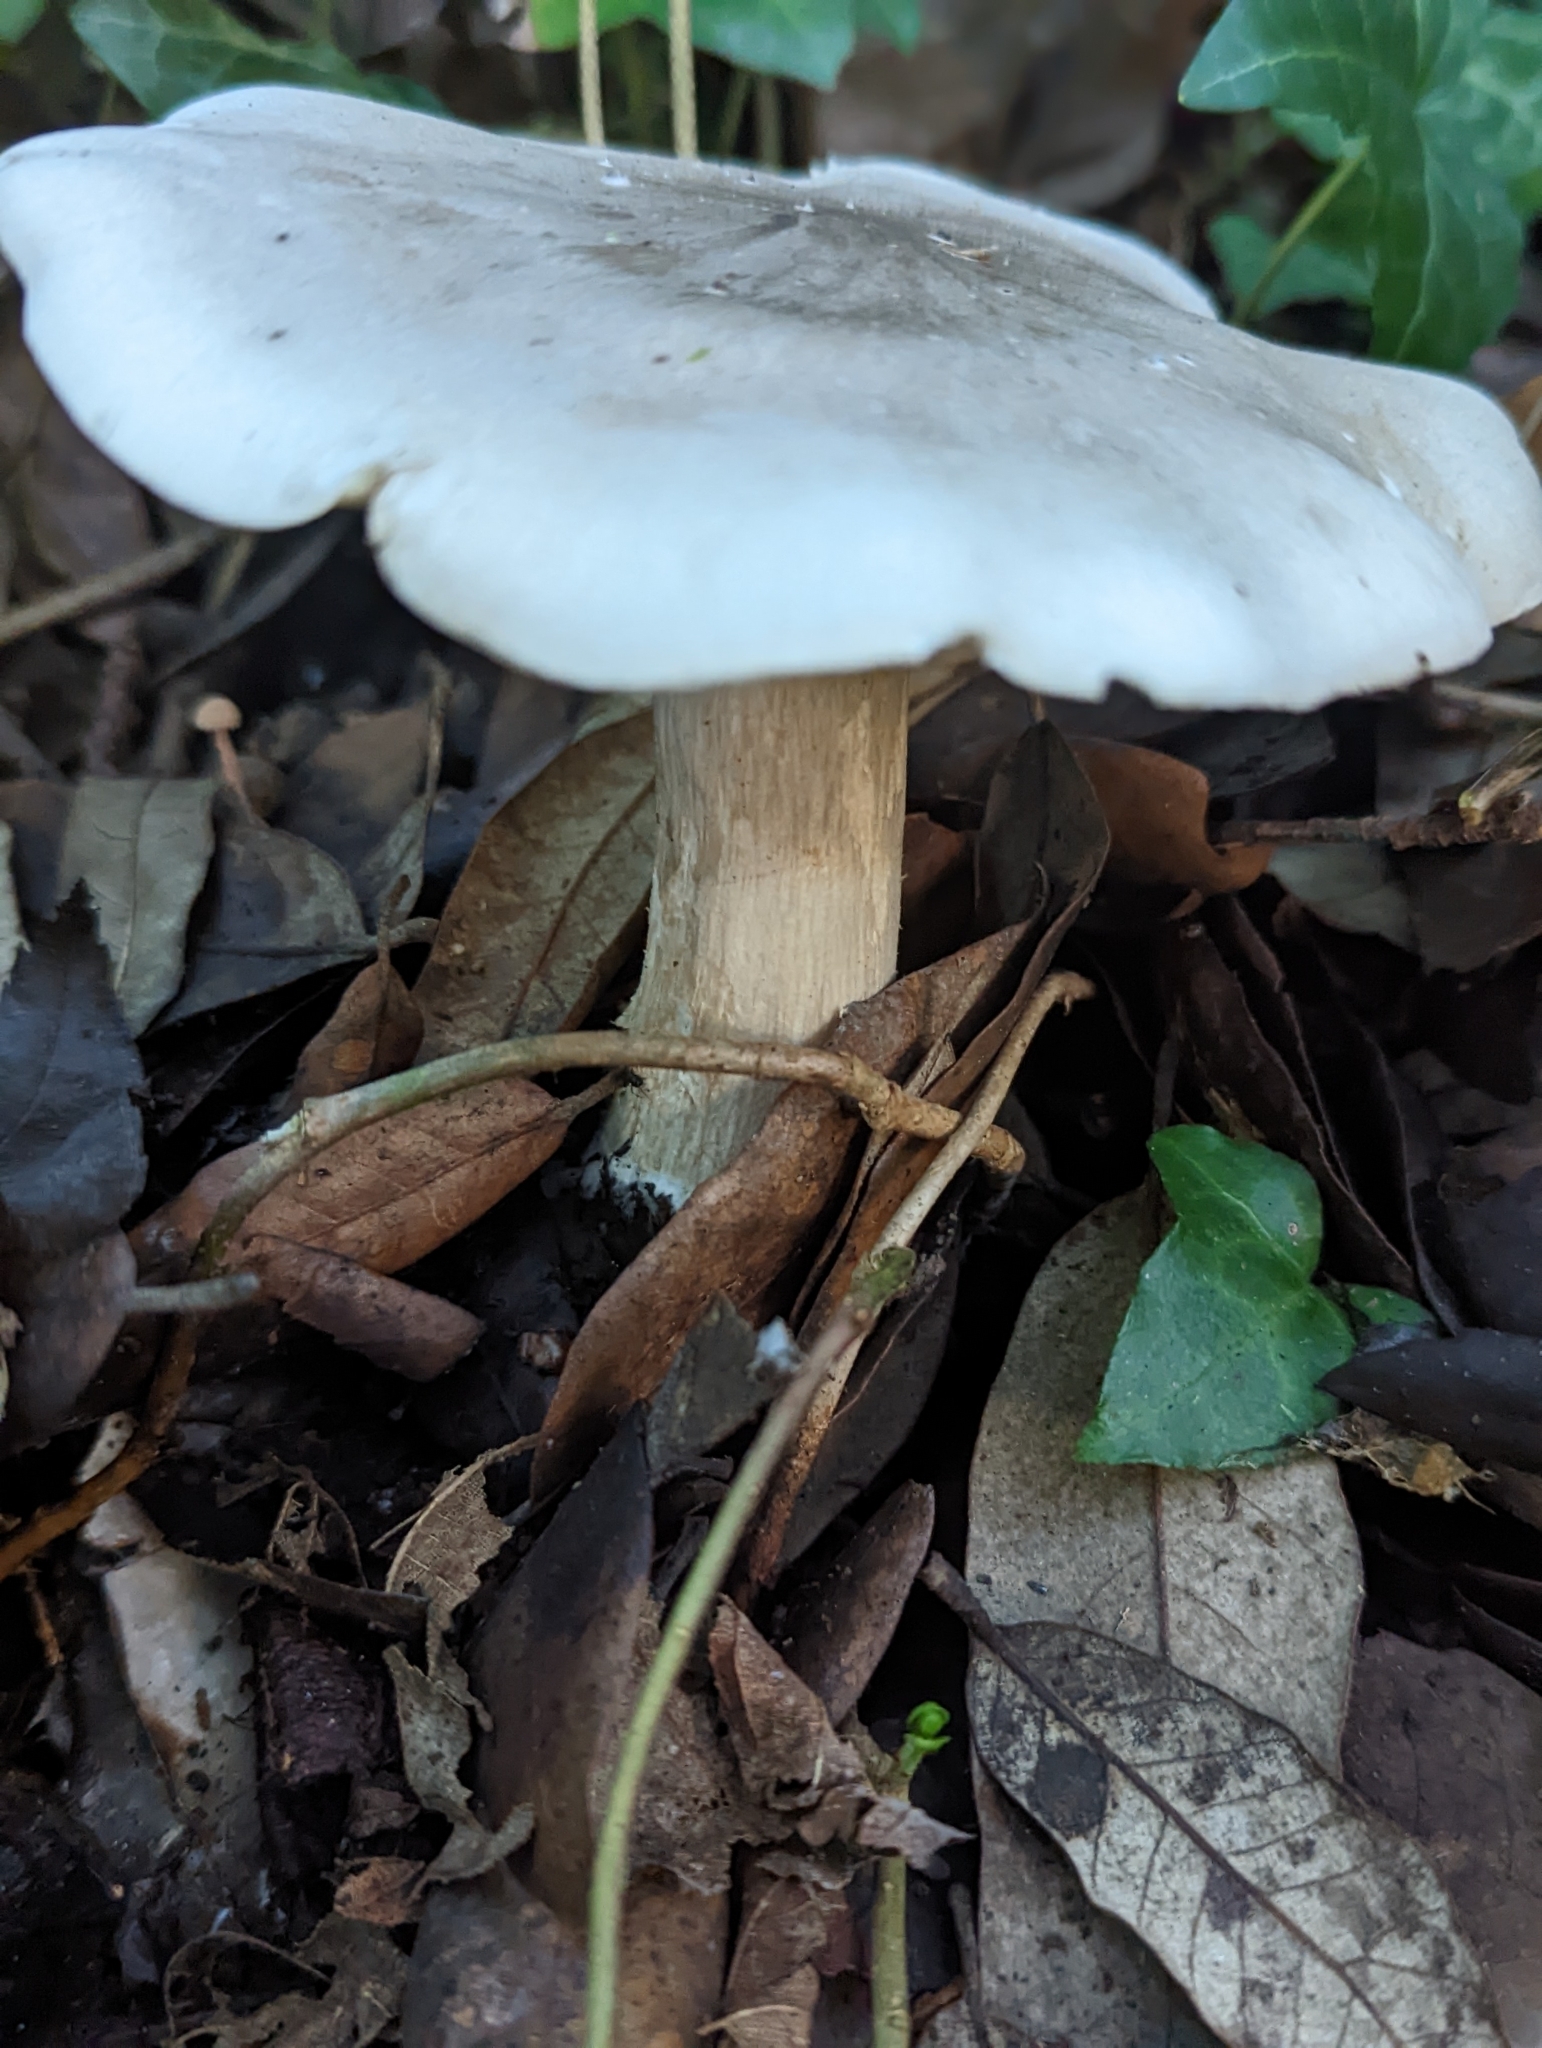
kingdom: Fungi
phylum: Basidiomycota
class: Agaricomycetes
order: Agaricales
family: Tricholomataceae
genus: Clitocybe
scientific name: Clitocybe nebularis
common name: Clouded agaric
